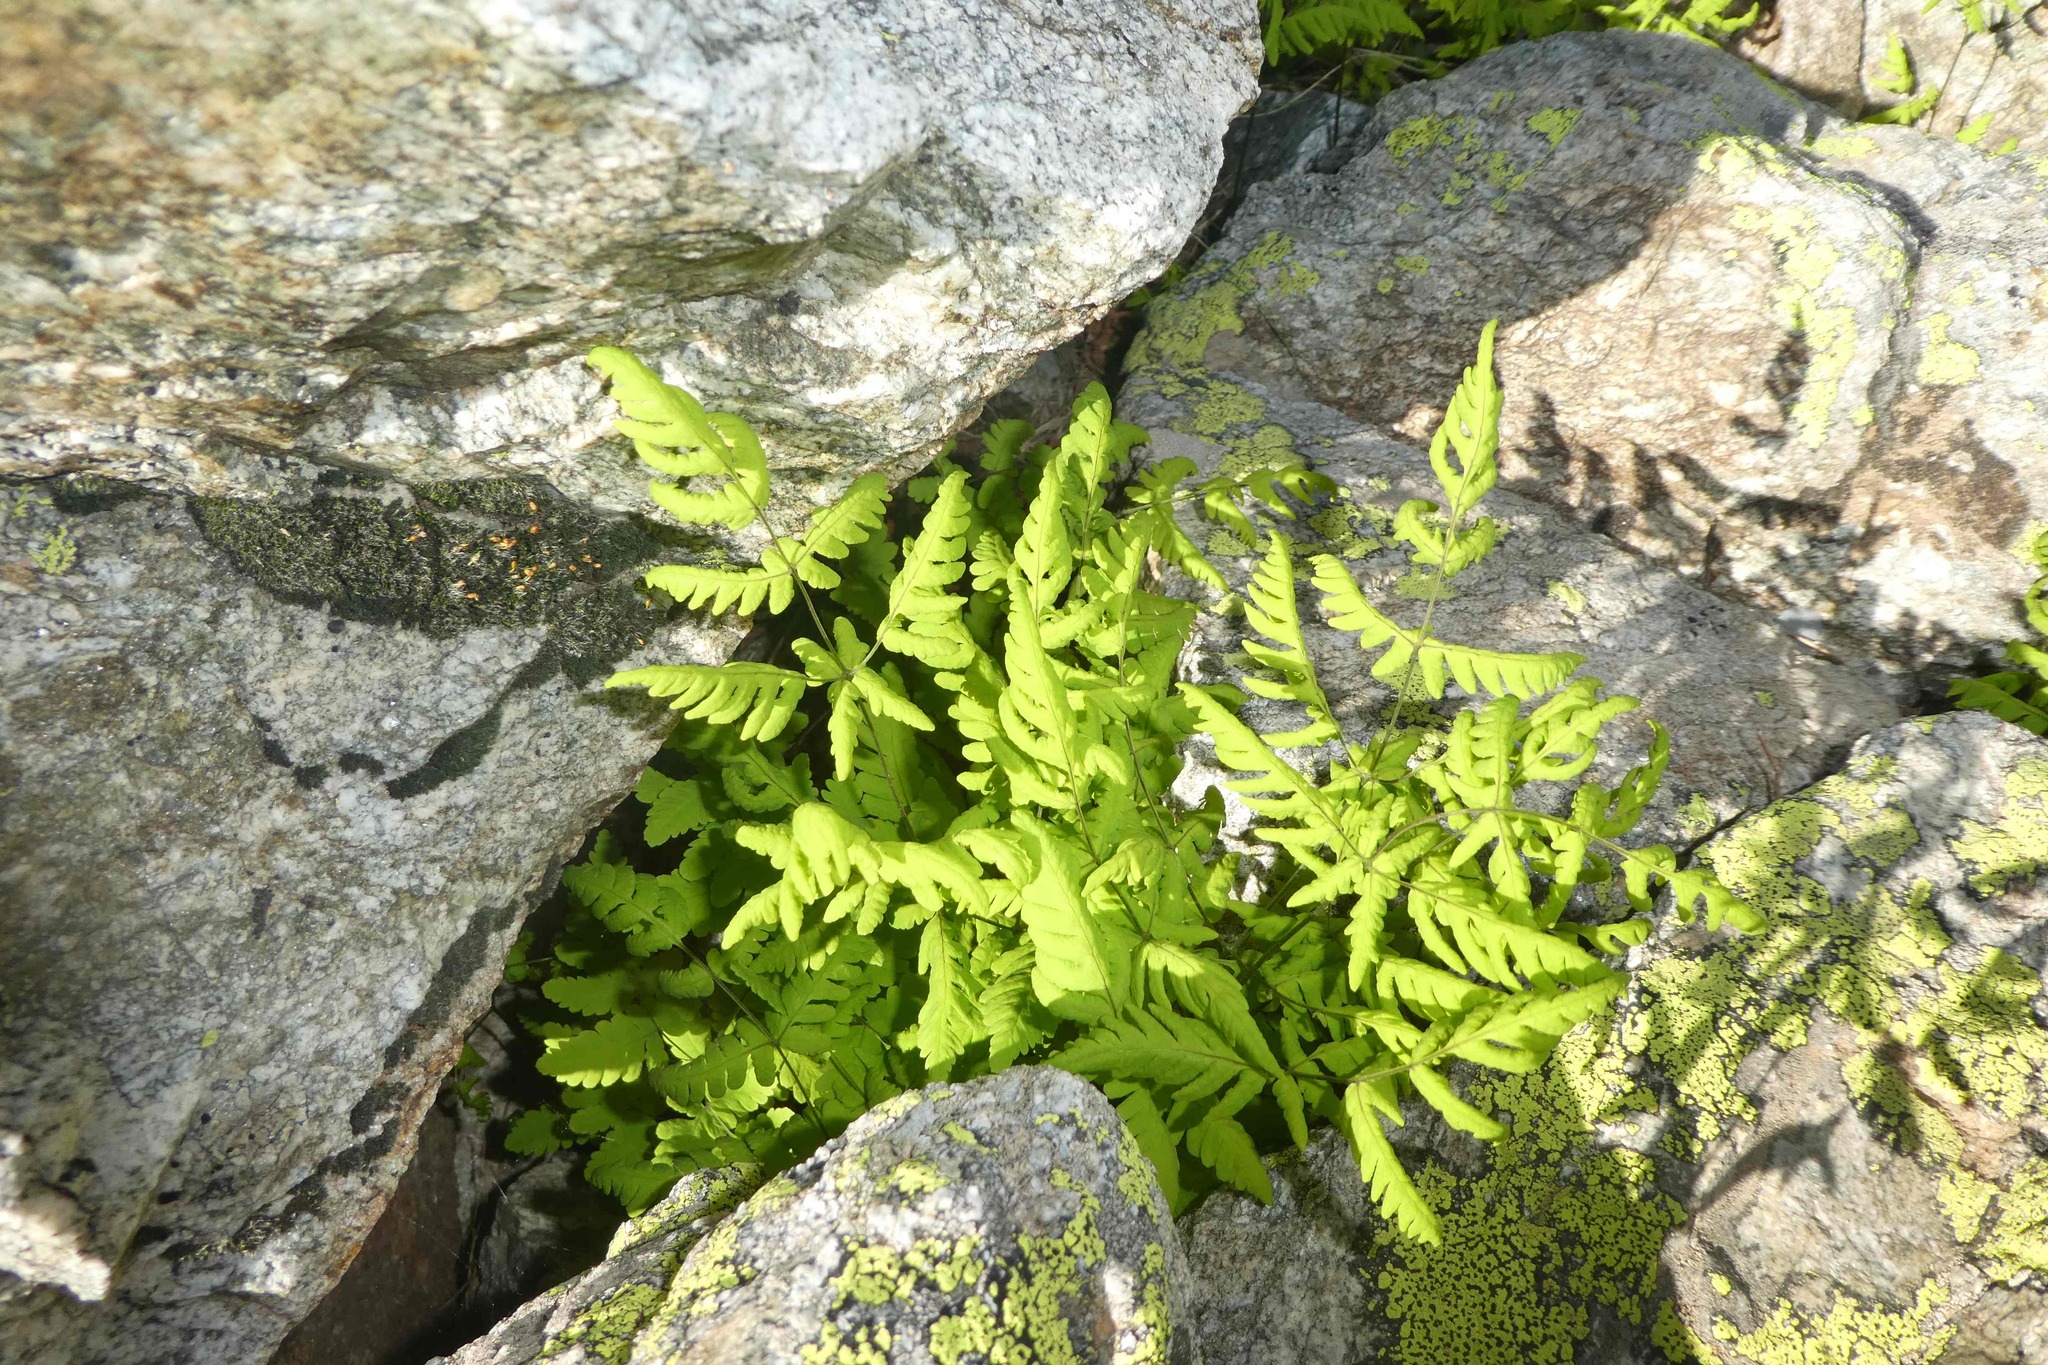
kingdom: Plantae
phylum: Tracheophyta
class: Polypodiopsida
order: Polypodiales
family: Cystopteridaceae
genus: Gymnocarpium
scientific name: Gymnocarpium dryopteris
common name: Oak fern
